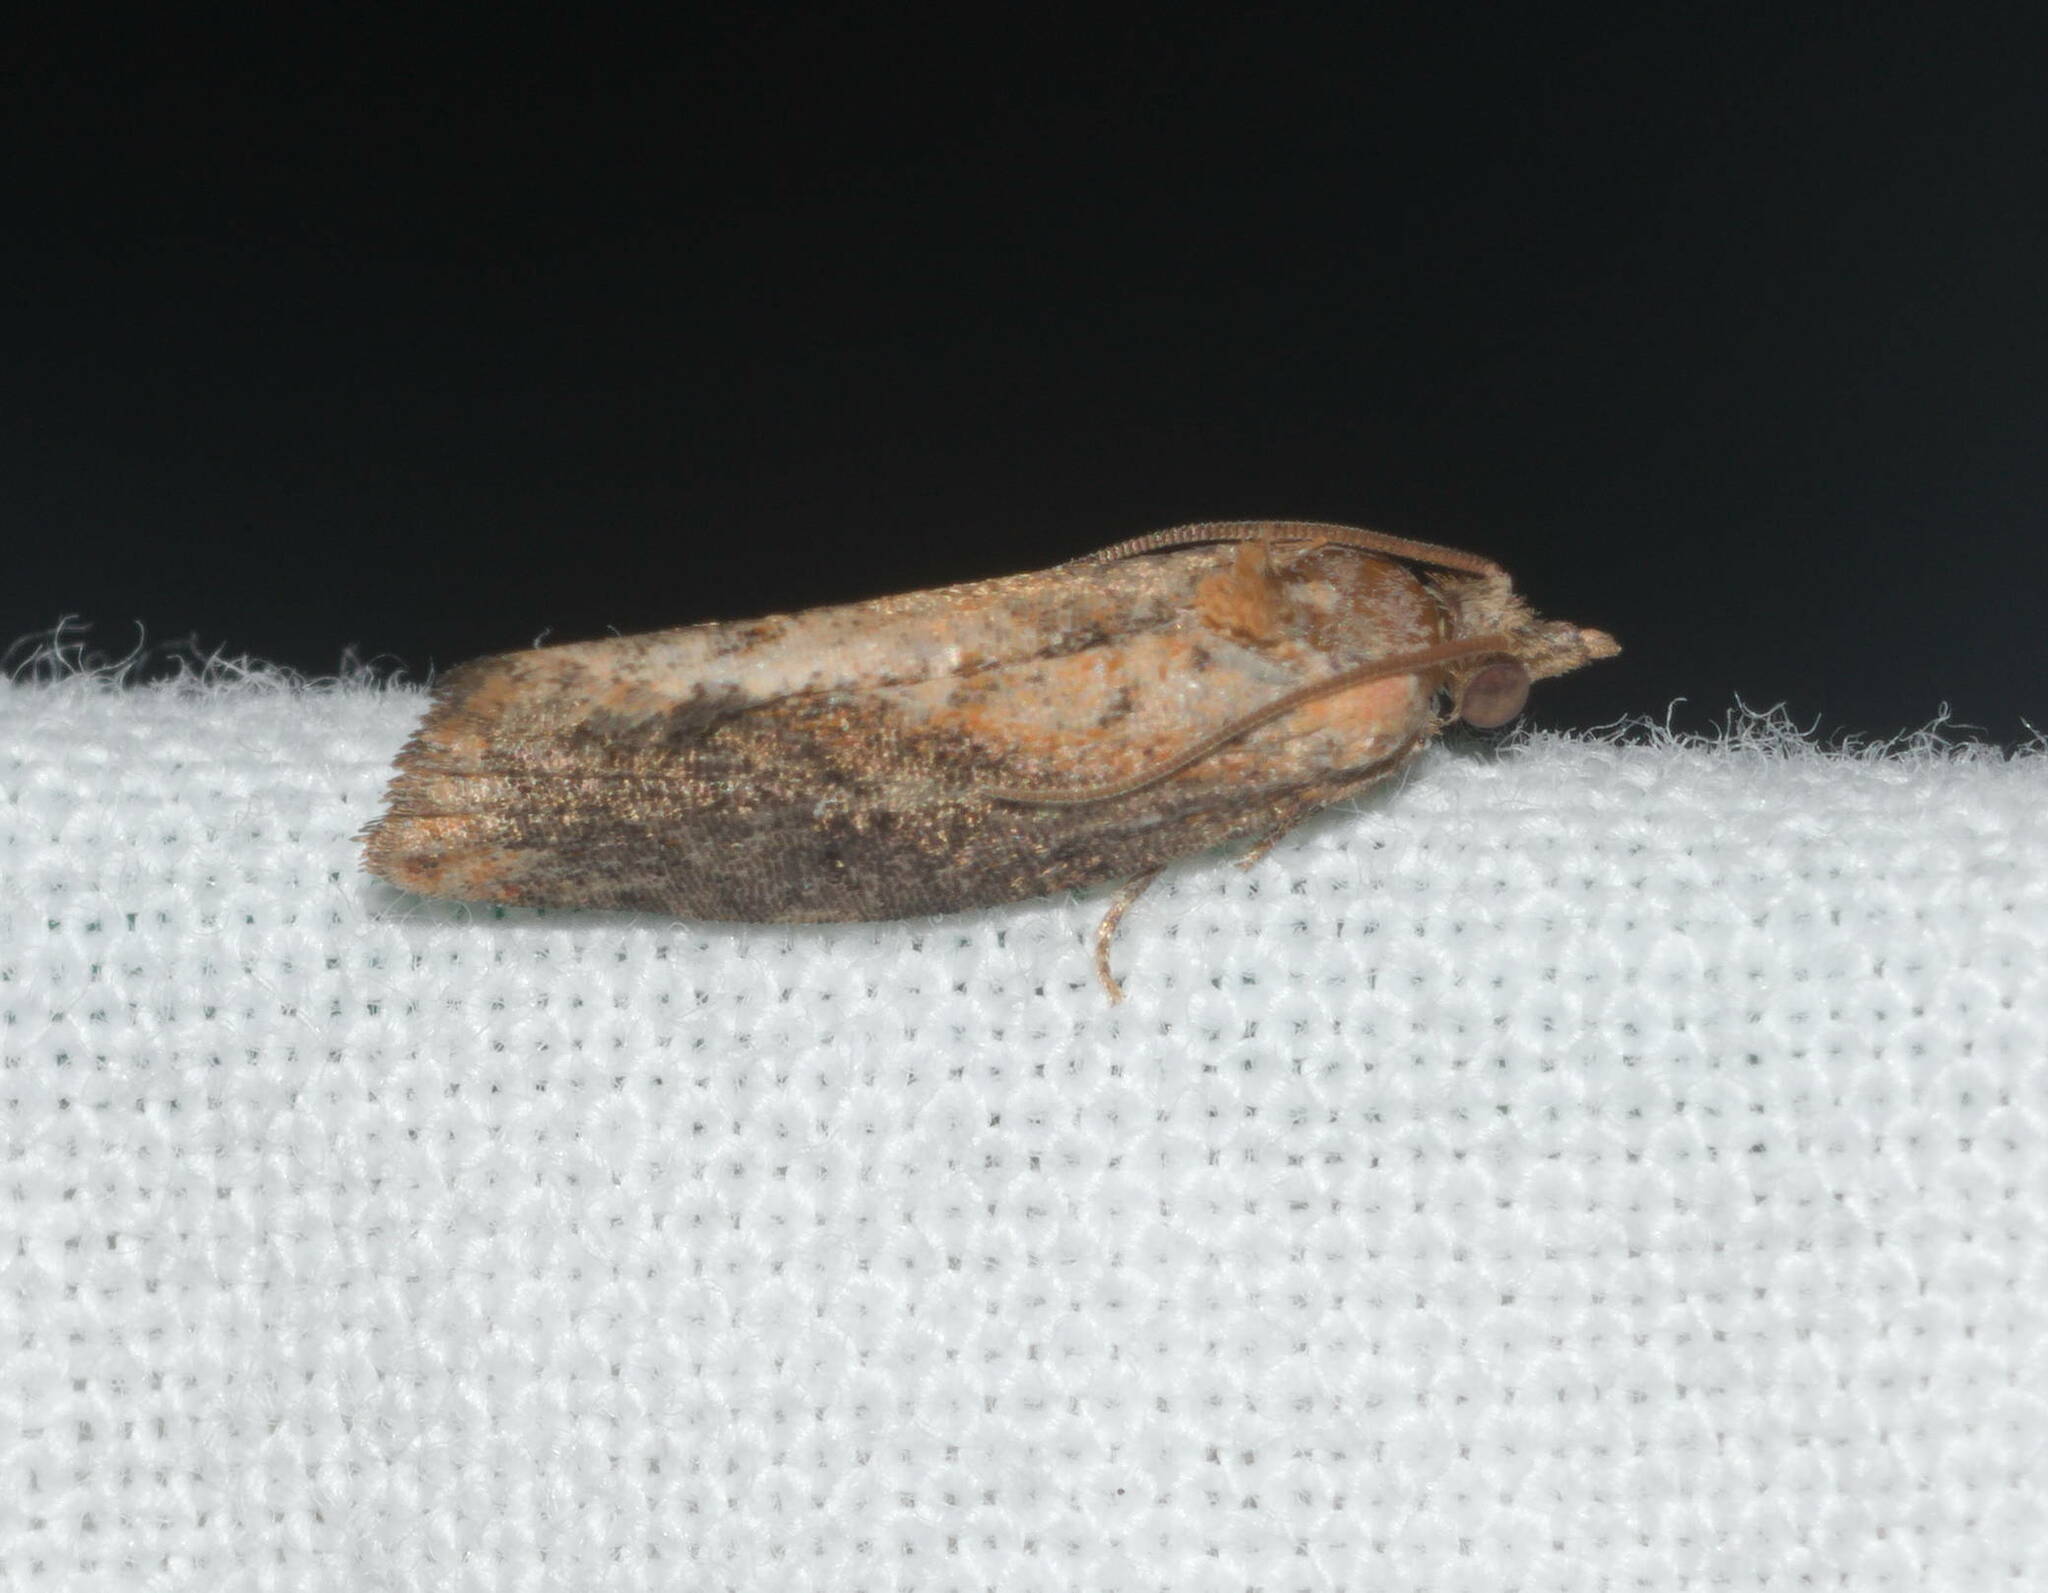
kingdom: Animalia
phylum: Arthropoda
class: Insecta
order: Lepidoptera
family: Tortricidae
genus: Cryptophlebia
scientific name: Cryptophlebia illepida
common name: Moth
